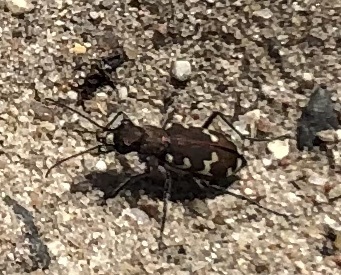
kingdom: Animalia
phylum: Arthropoda
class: Insecta
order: Coleoptera
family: Carabidae
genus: Cicindela
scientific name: Cicindela hybrida
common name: Northern dune tiger beetle
